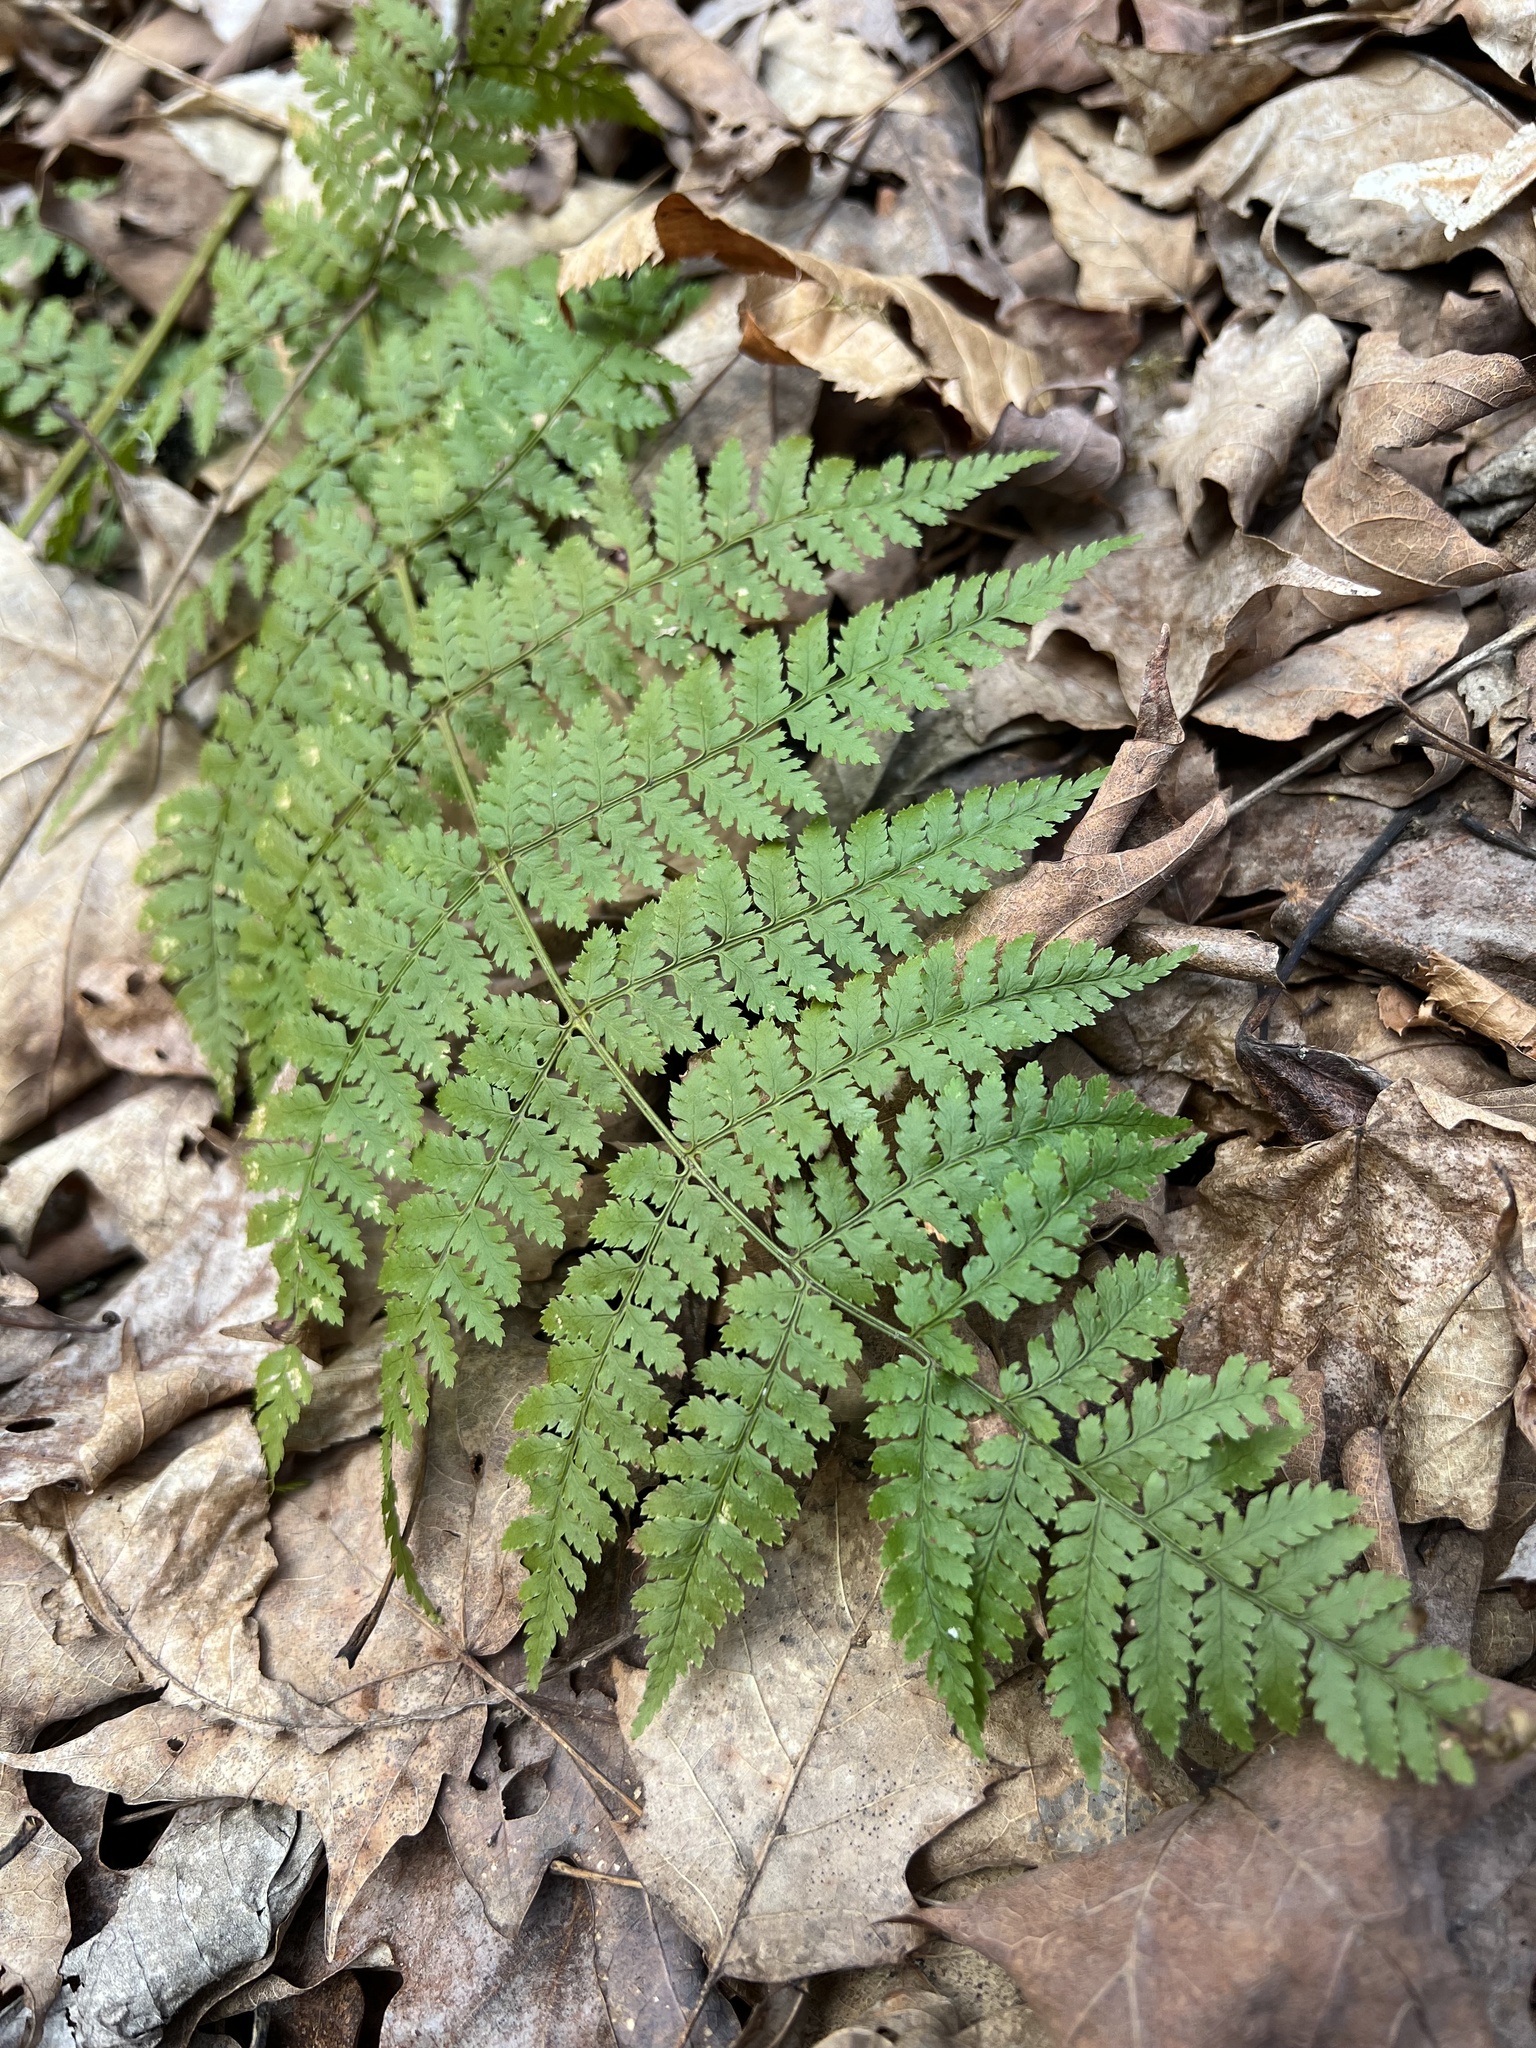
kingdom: Plantae
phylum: Tracheophyta
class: Polypodiopsida
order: Polypodiales
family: Dryopteridaceae
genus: Dryopteris
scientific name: Dryopteris intermedia
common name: Evergreen wood fern
